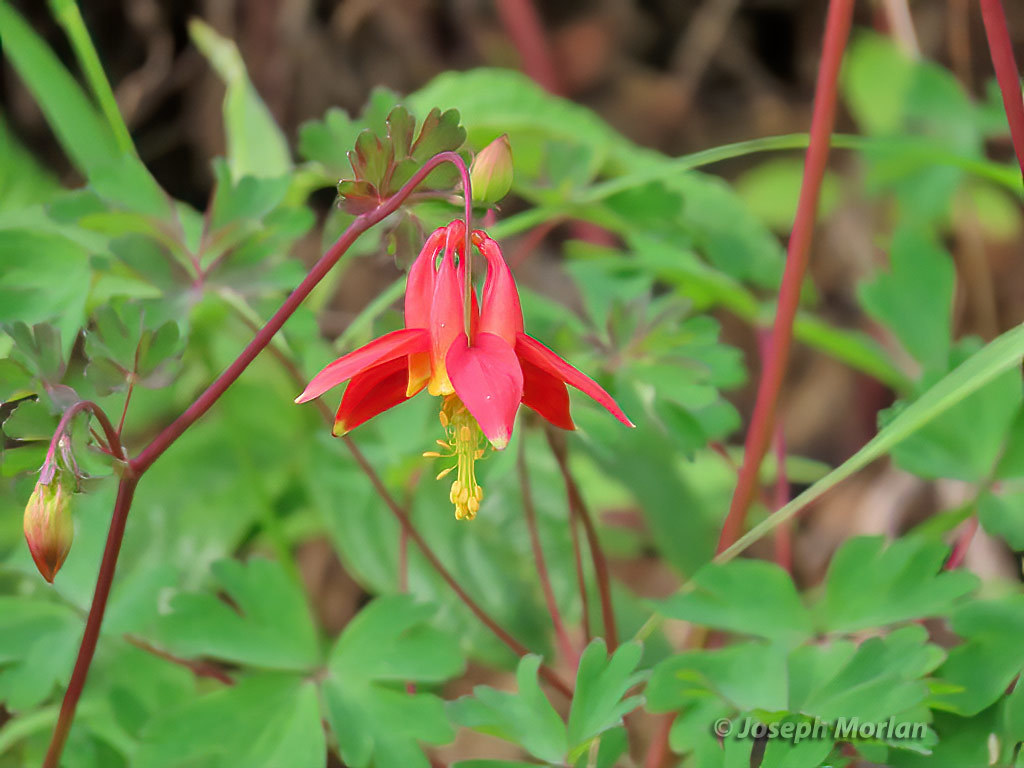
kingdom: Plantae
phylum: Tracheophyta
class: Magnoliopsida
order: Ranunculales
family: Ranunculaceae
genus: Aquilegia
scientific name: Aquilegia formosa
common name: Sitka columbine
